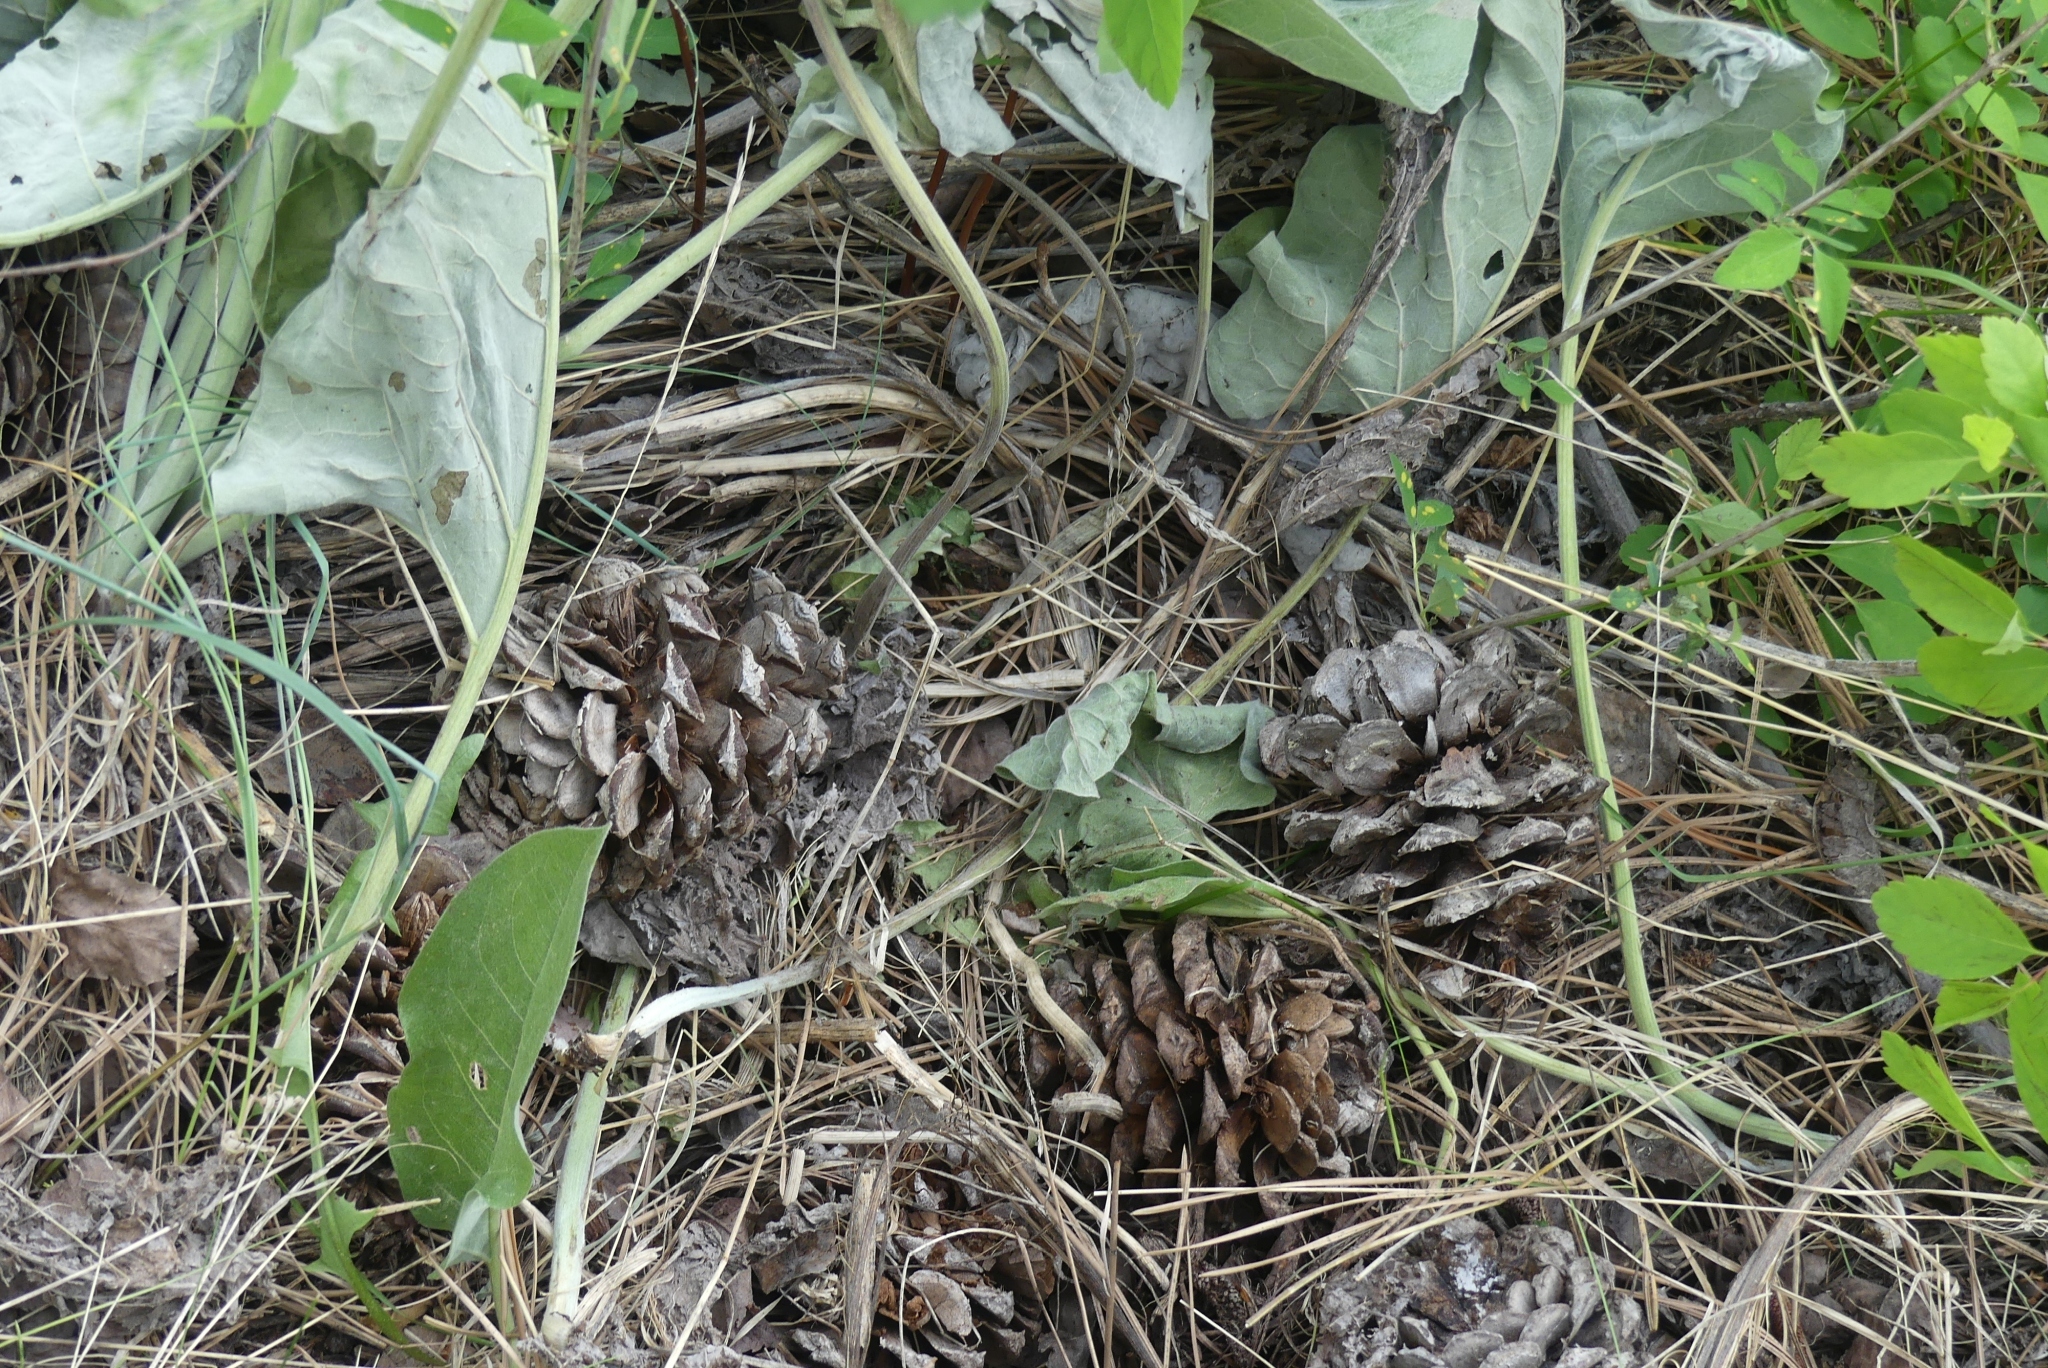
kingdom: Plantae
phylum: Tracheophyta
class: Pinopsida
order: Pinales
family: Pinaceae
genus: Pinus
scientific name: Pinus ponderosa
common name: Western yellow-pine
